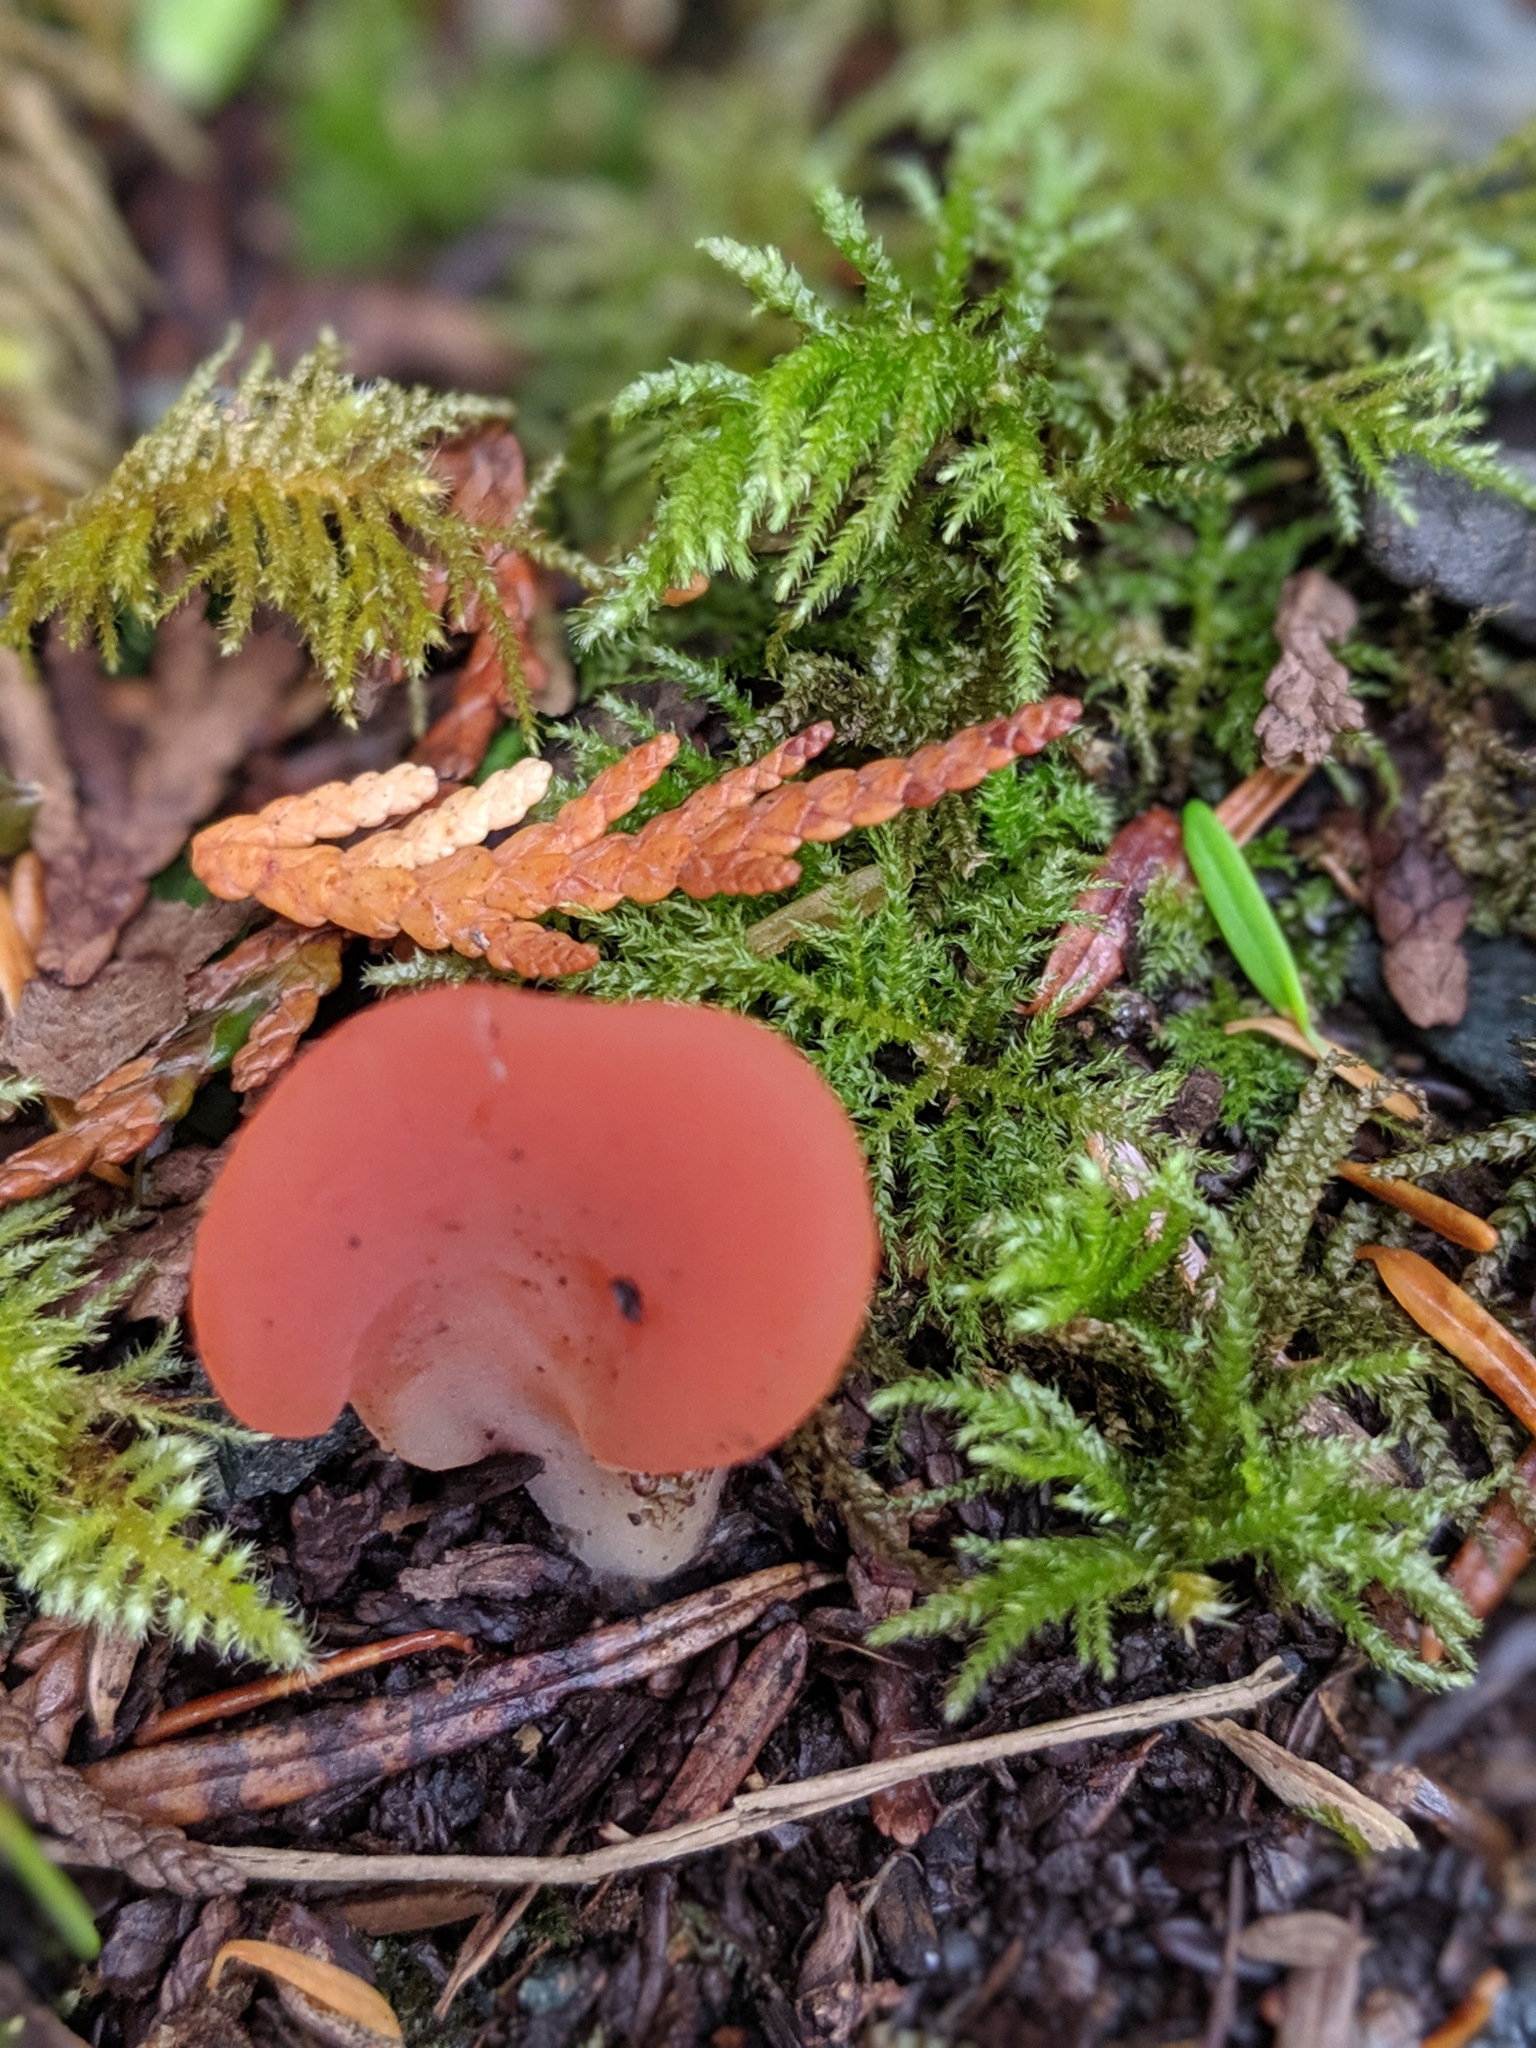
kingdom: Fungi
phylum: Basidiomycota
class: Agaricomycetes
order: Auriculariales
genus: Guepinia
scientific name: Guepinia helvelloides
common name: Salmon salad
